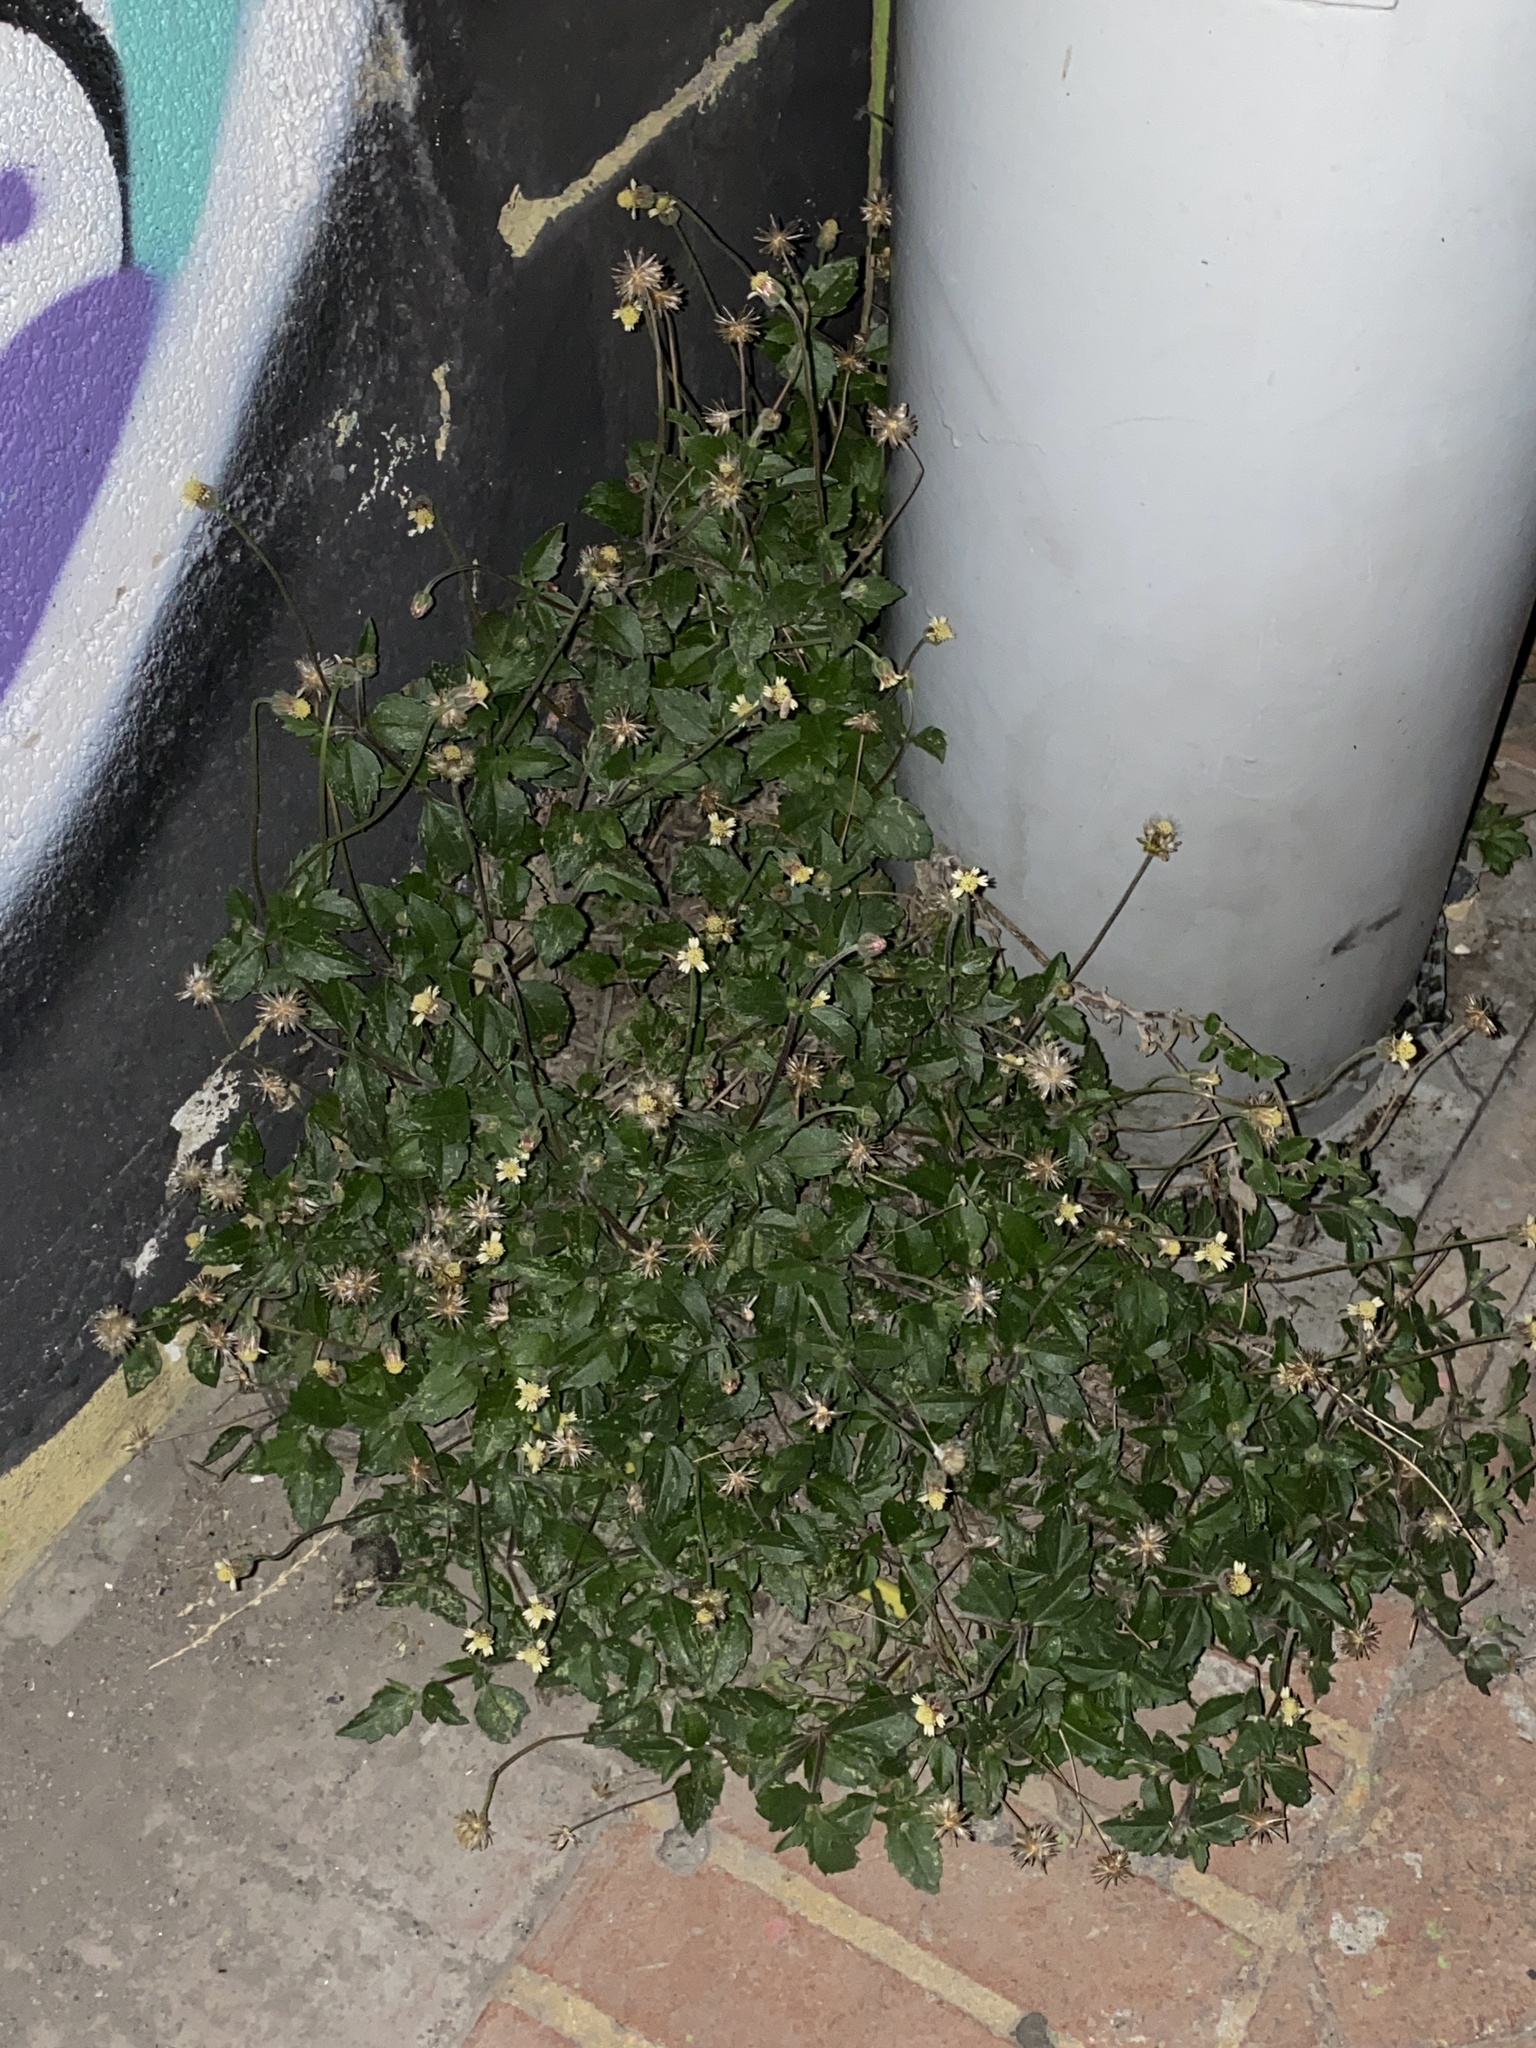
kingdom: Plantae
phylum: Tracheophyta
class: Magnoliopsida
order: Asterales
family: Asteraceae
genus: Tridax
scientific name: Tridax procumbens
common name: Coatbuttons
